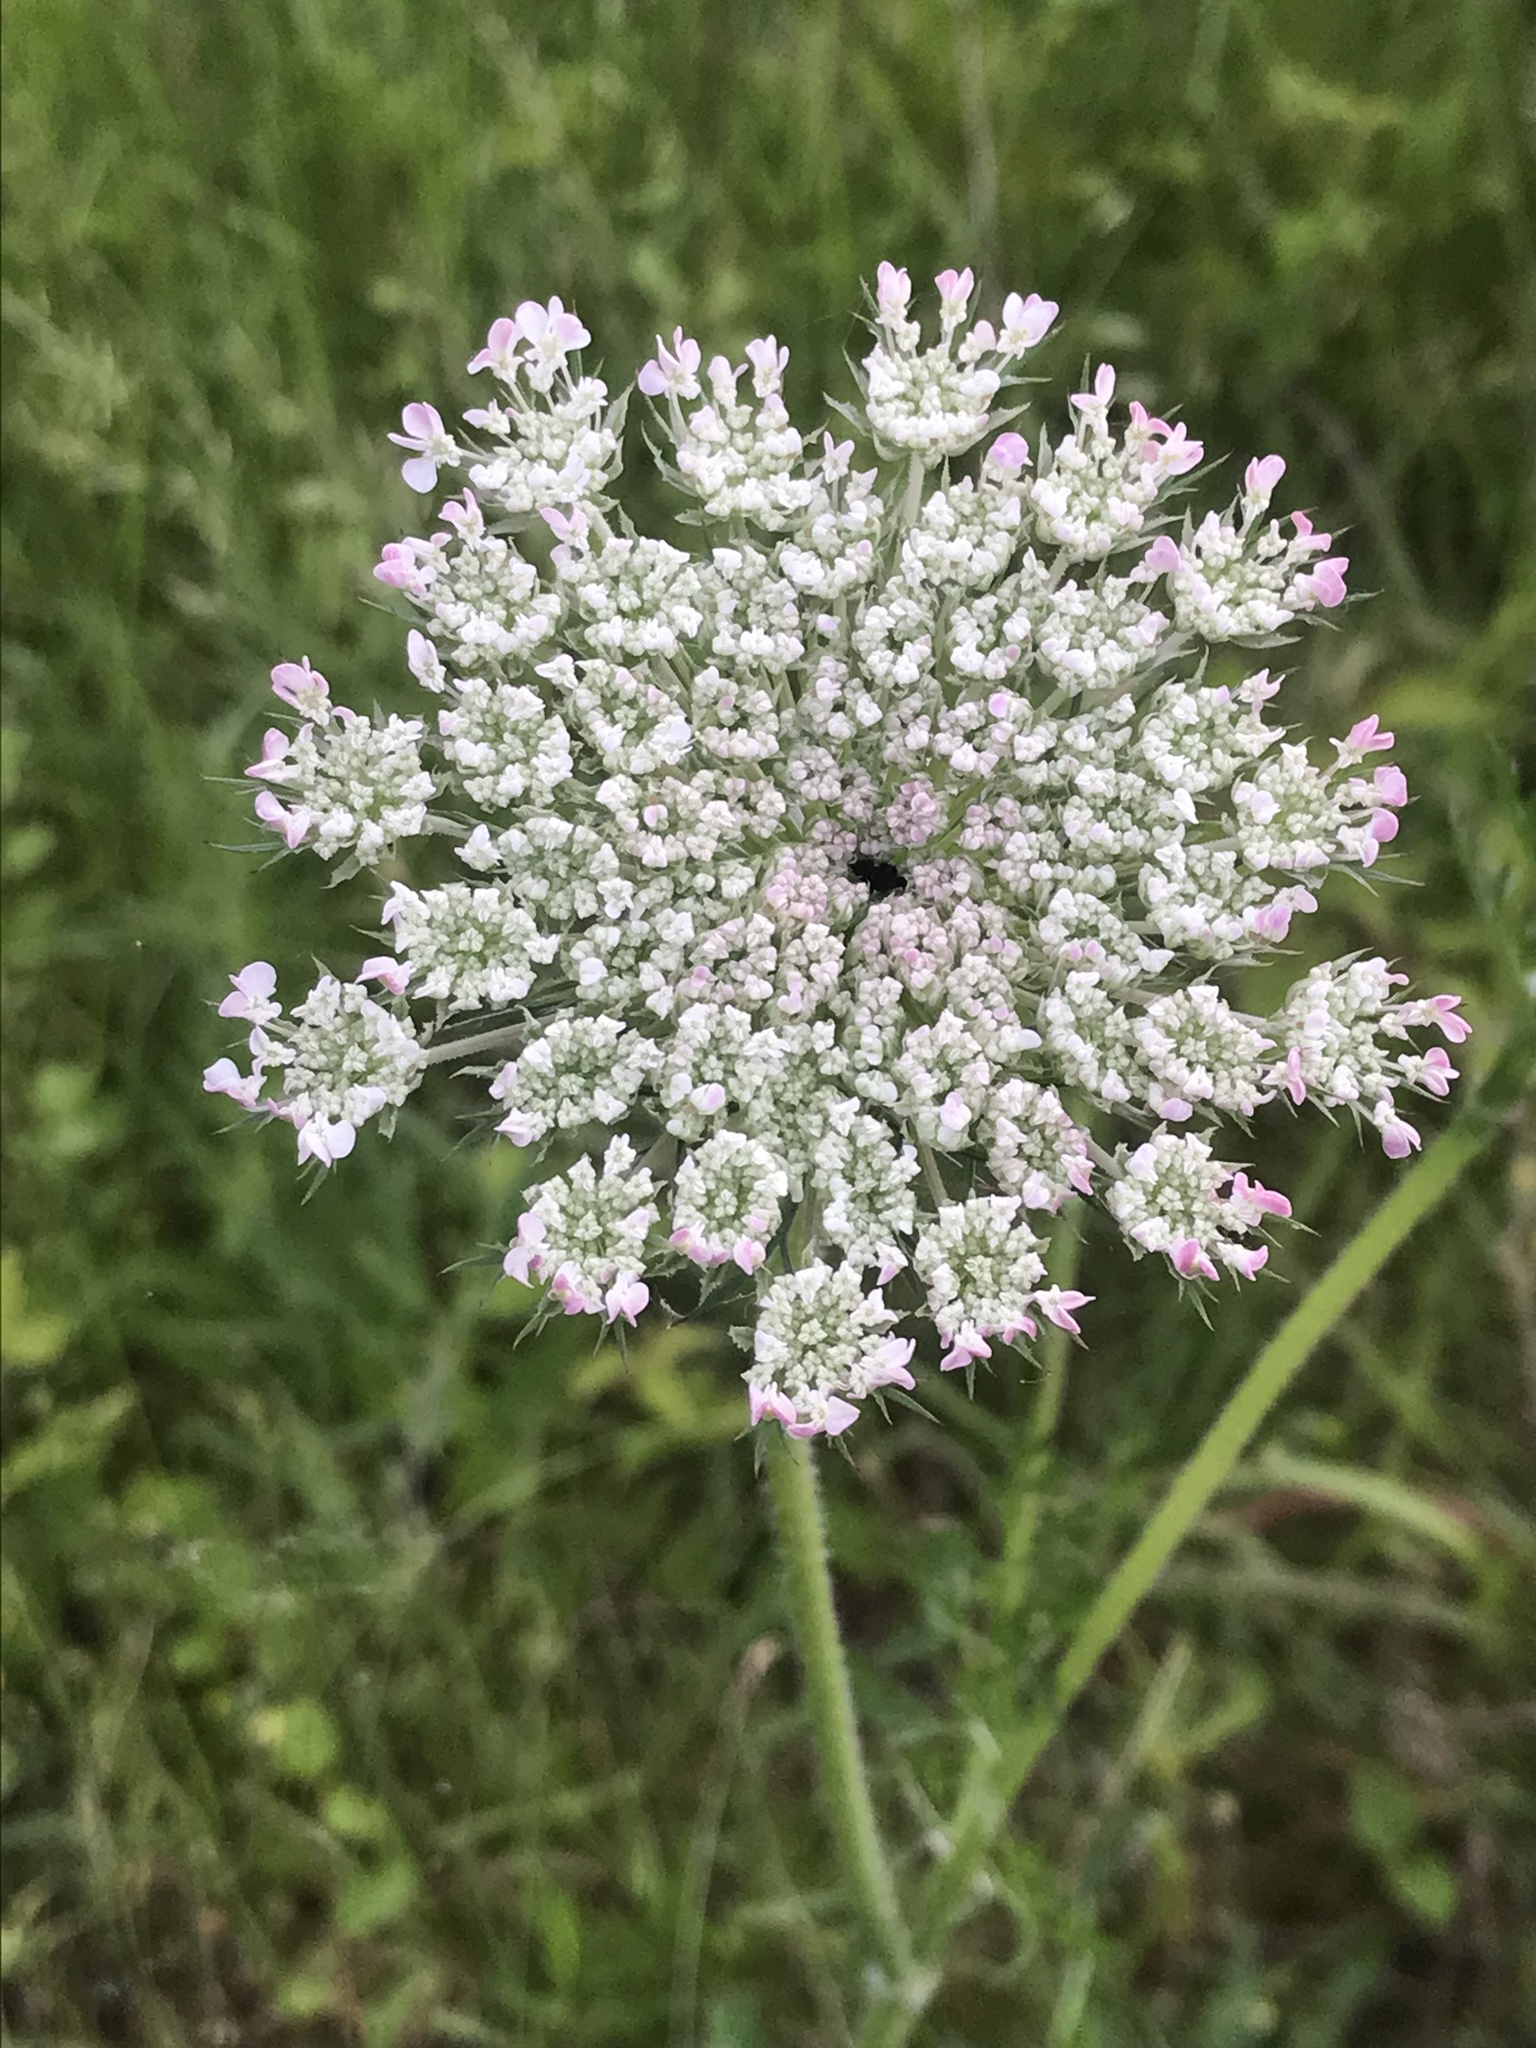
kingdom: Plantae
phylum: Tracheophyta
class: Magnoliopsida
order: Apiales
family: Apiaceae
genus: Daucus
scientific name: Daucus carota
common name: Wild carrot
